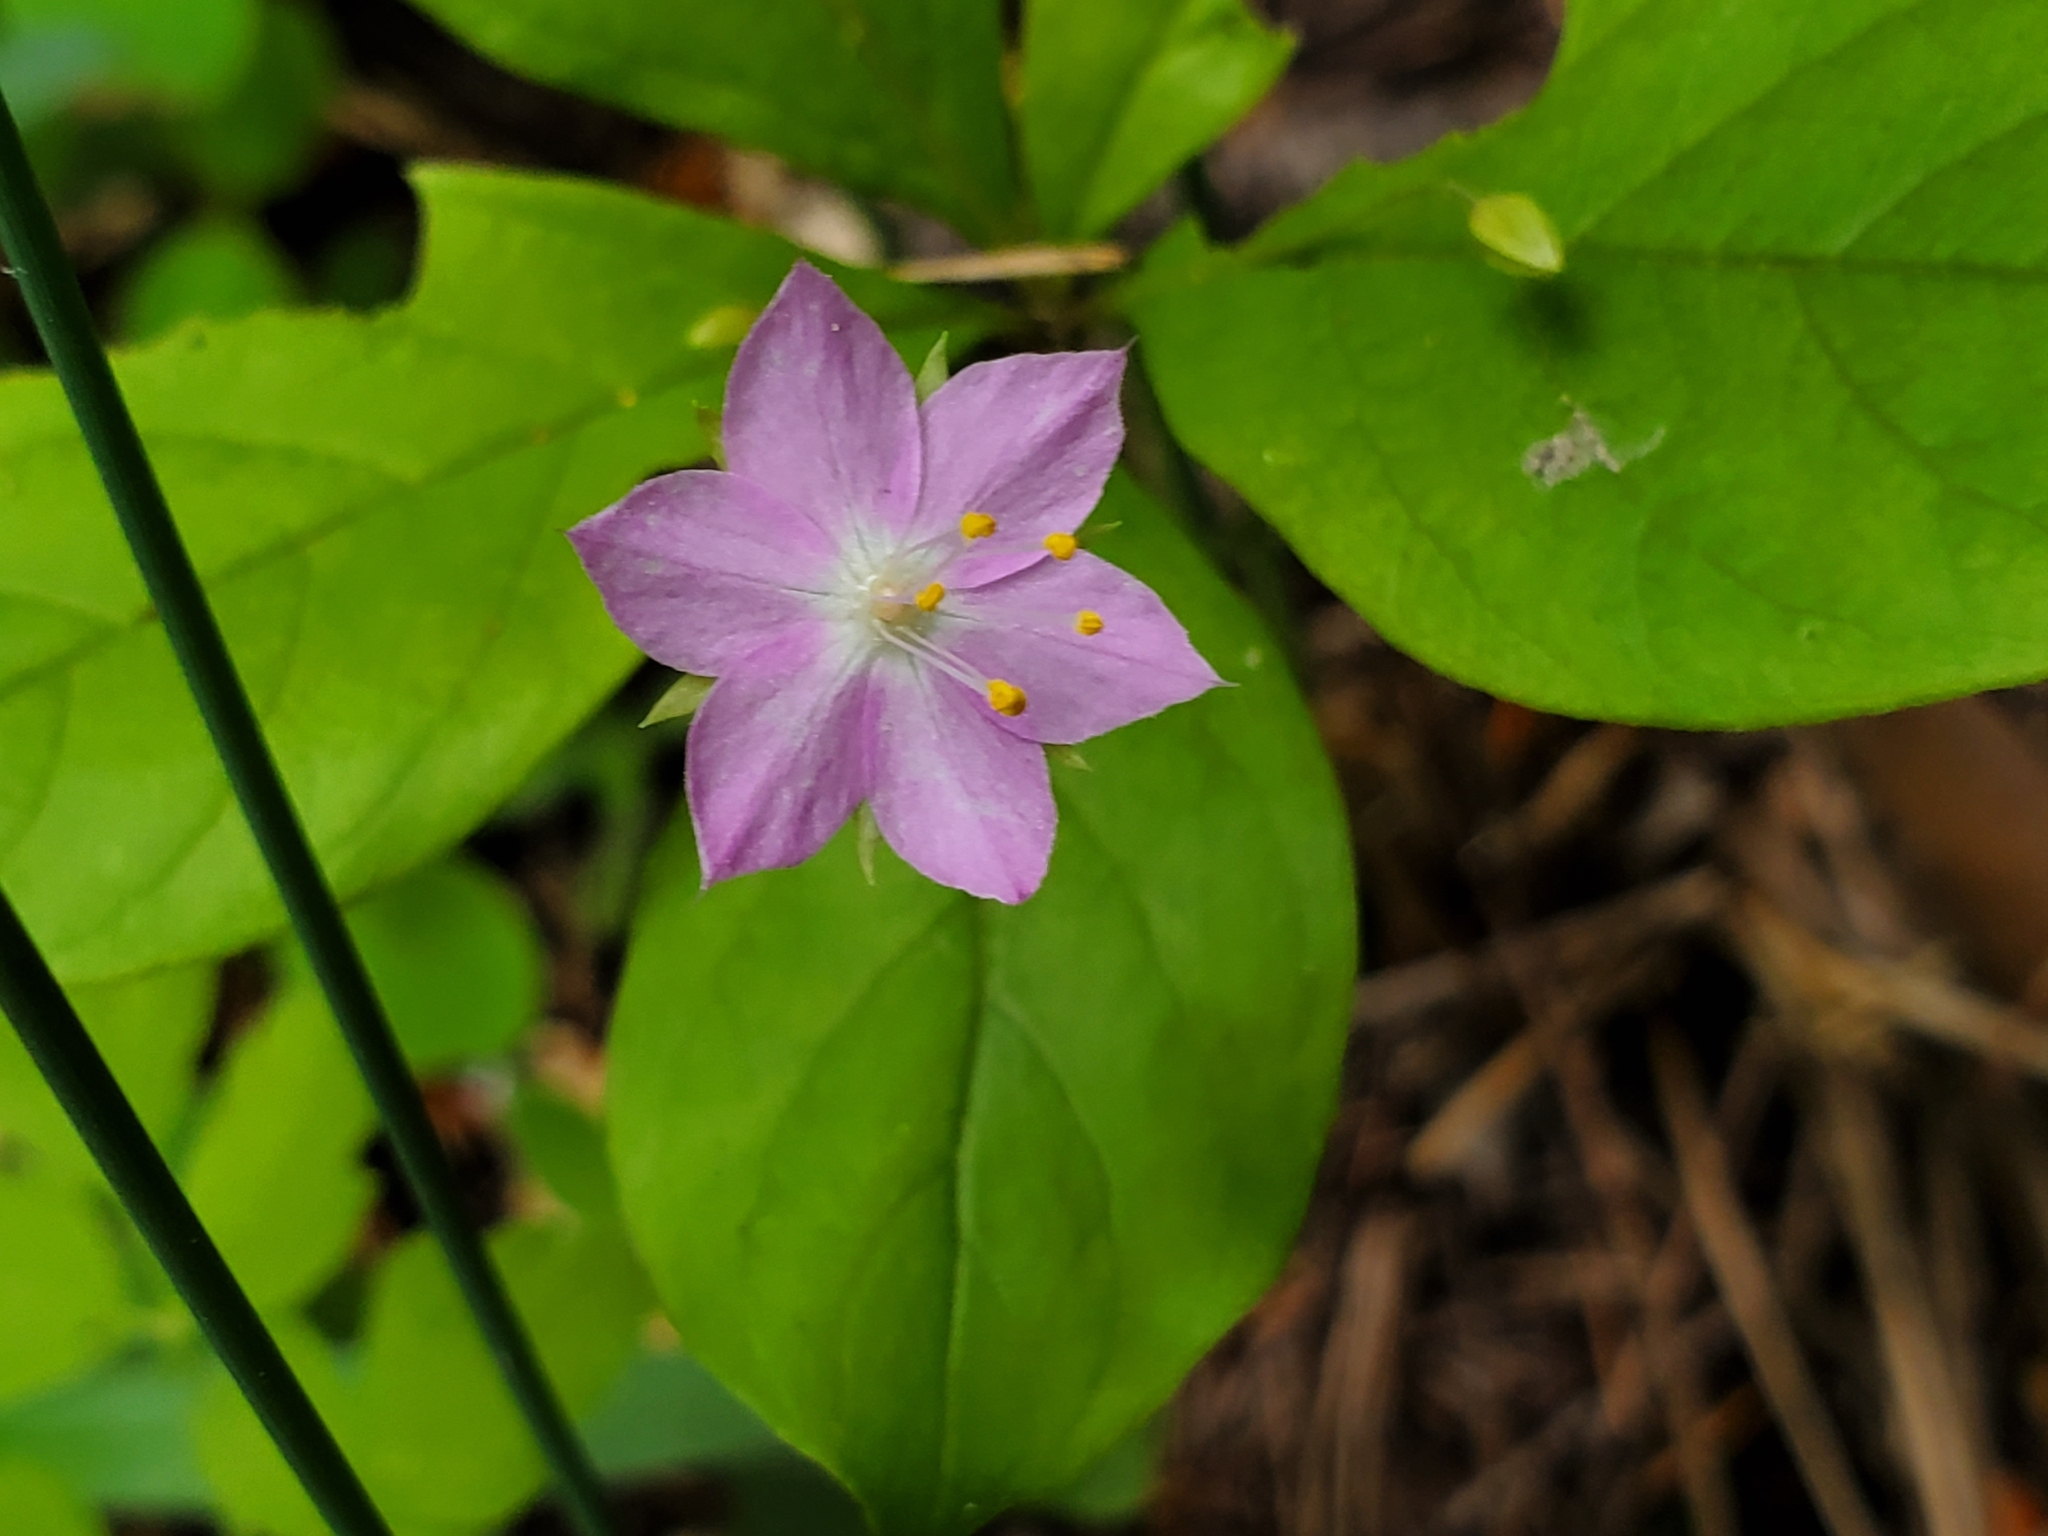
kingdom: Plantae
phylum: Tracheophyta
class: Magnoliopsida
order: Ericales
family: Primulaceae
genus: Lysimachia
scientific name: Lysimachia latifolia
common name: Pacific starflower
